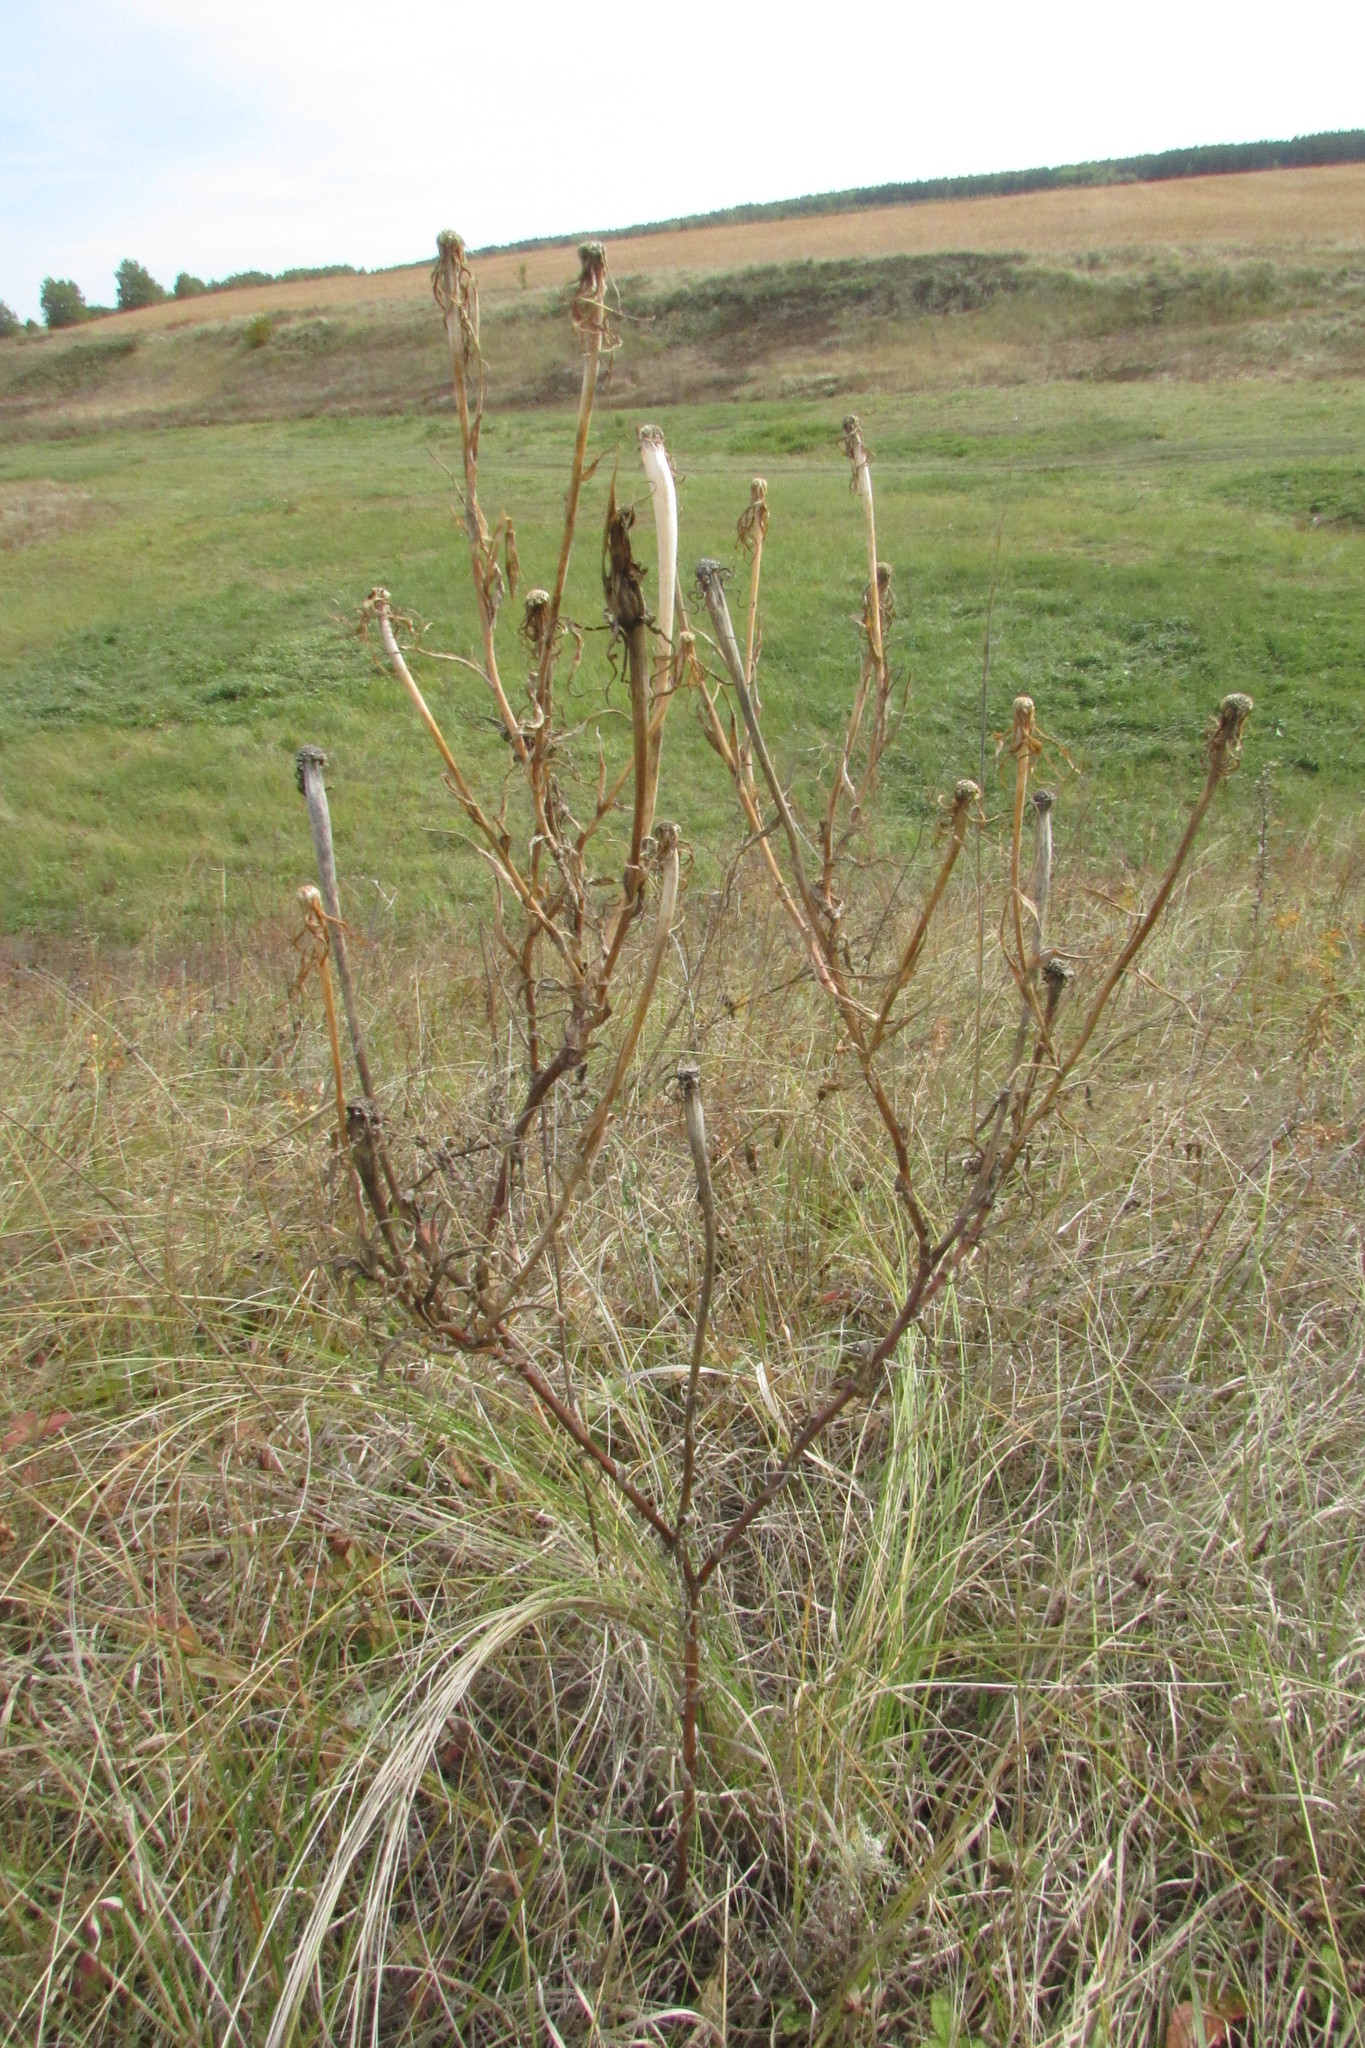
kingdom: Plantae
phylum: Tracheophyta
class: Magnoliopsida
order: Asterales
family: Asteraceae
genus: Tragopogon
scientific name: Tragopogon dubius
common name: Yellow salsify
